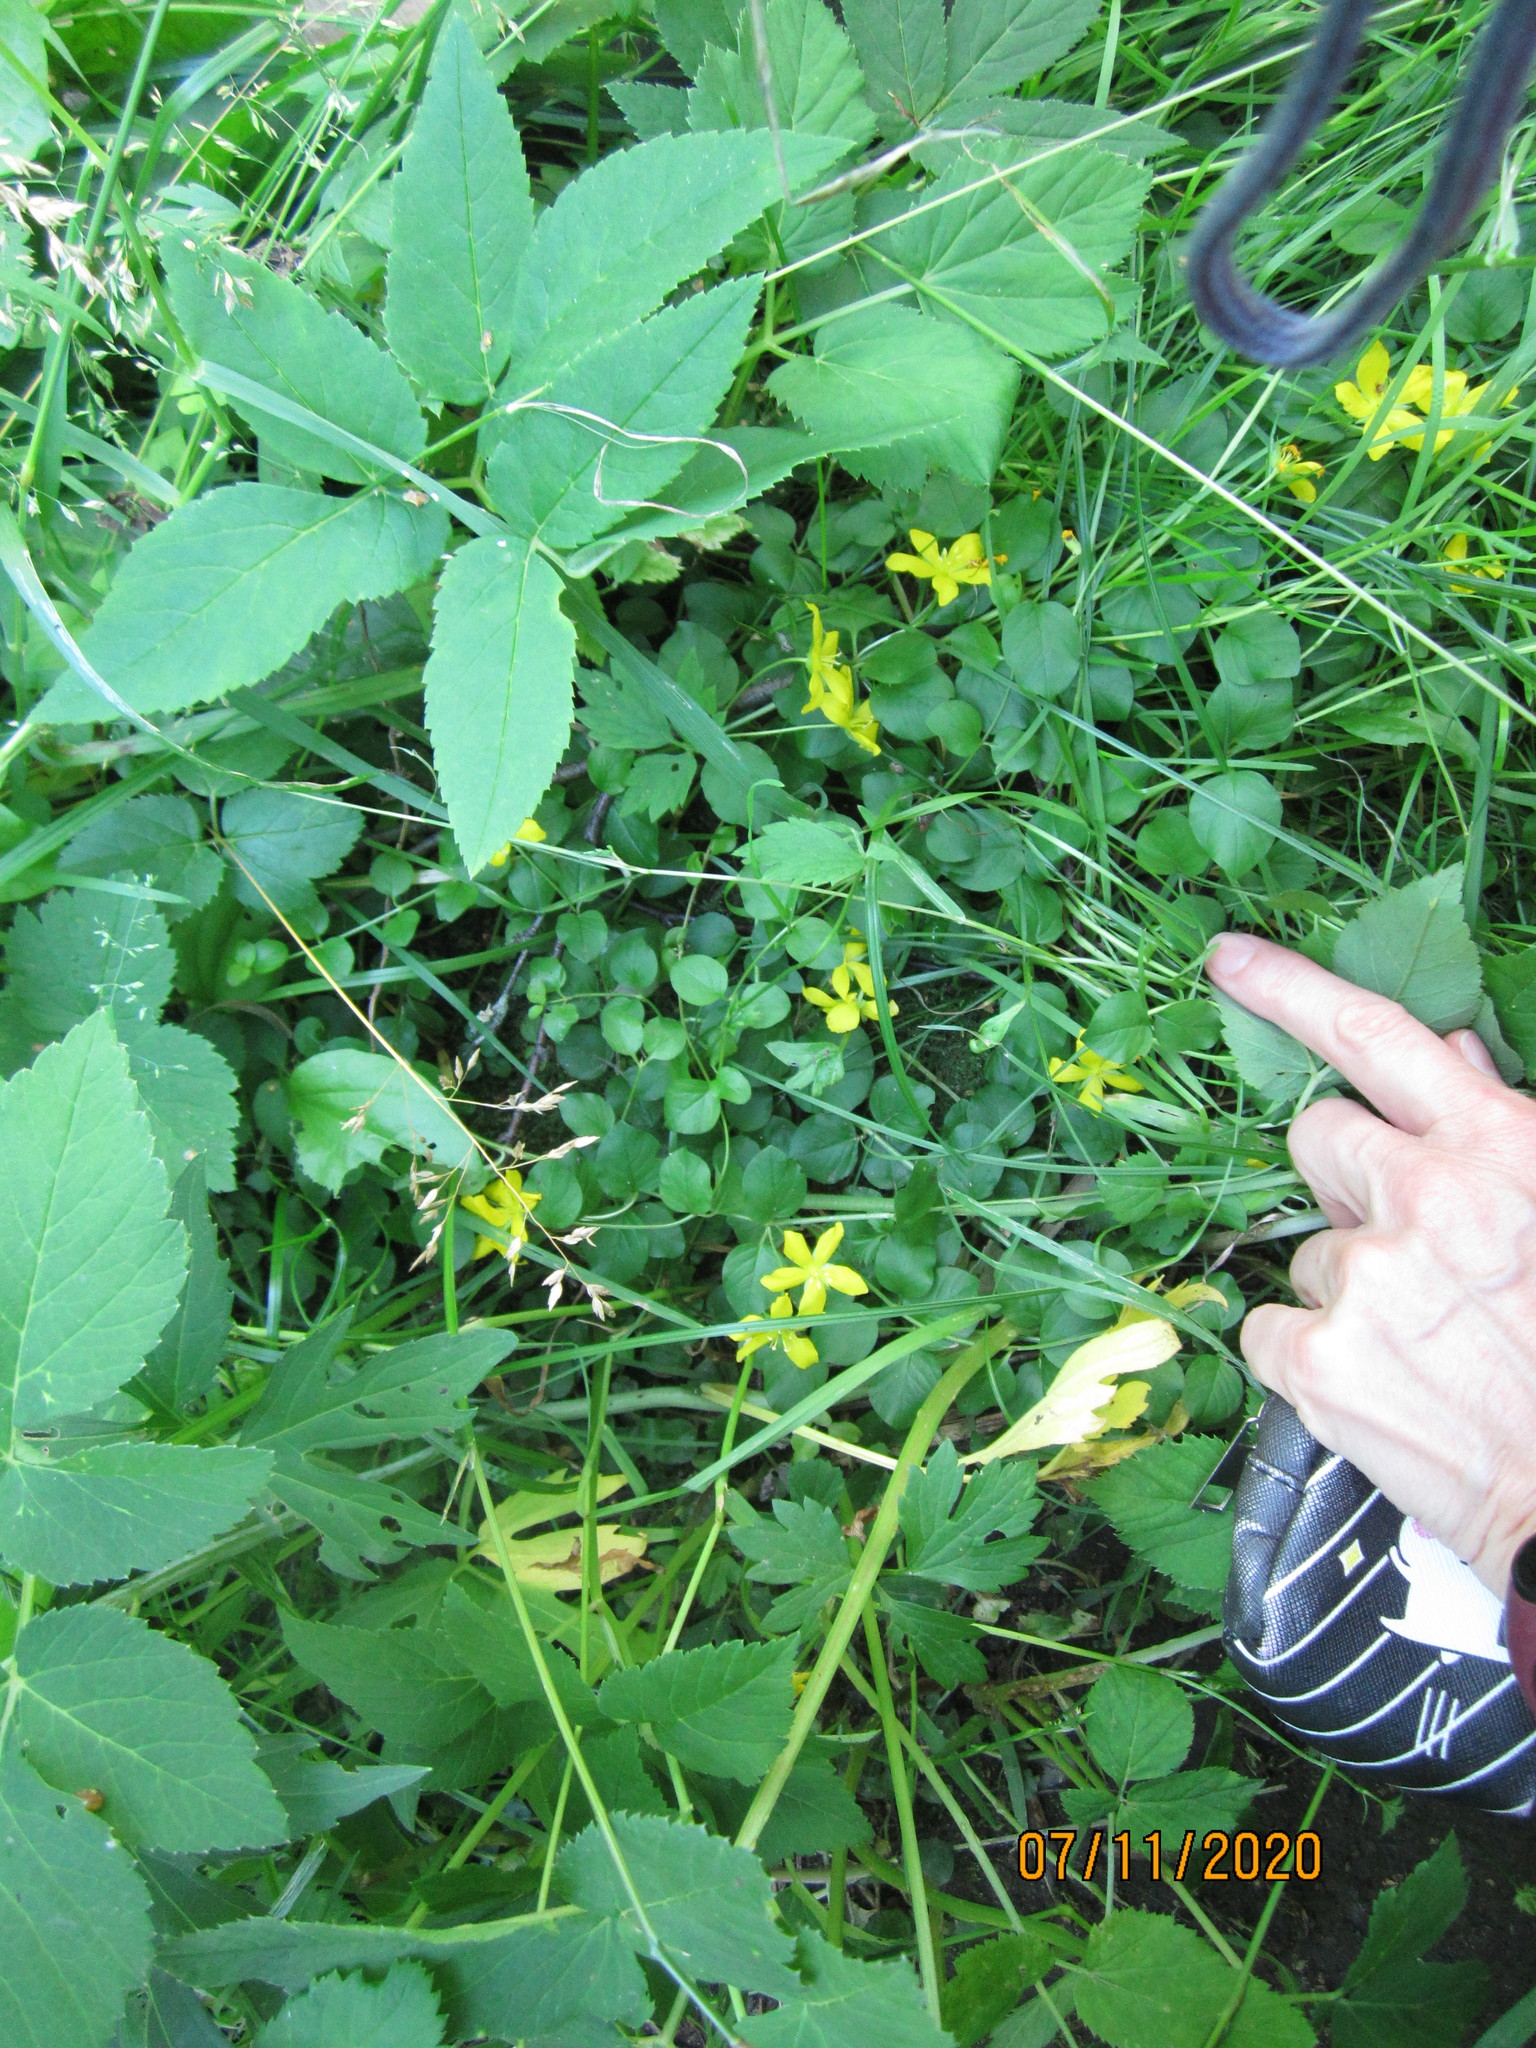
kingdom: Plantae
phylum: Tracheophyta
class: Magnoliopsida
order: Ericales
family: Primulaceae
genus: Lysimachia
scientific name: Lysimachia nummularia
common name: Moneywort
